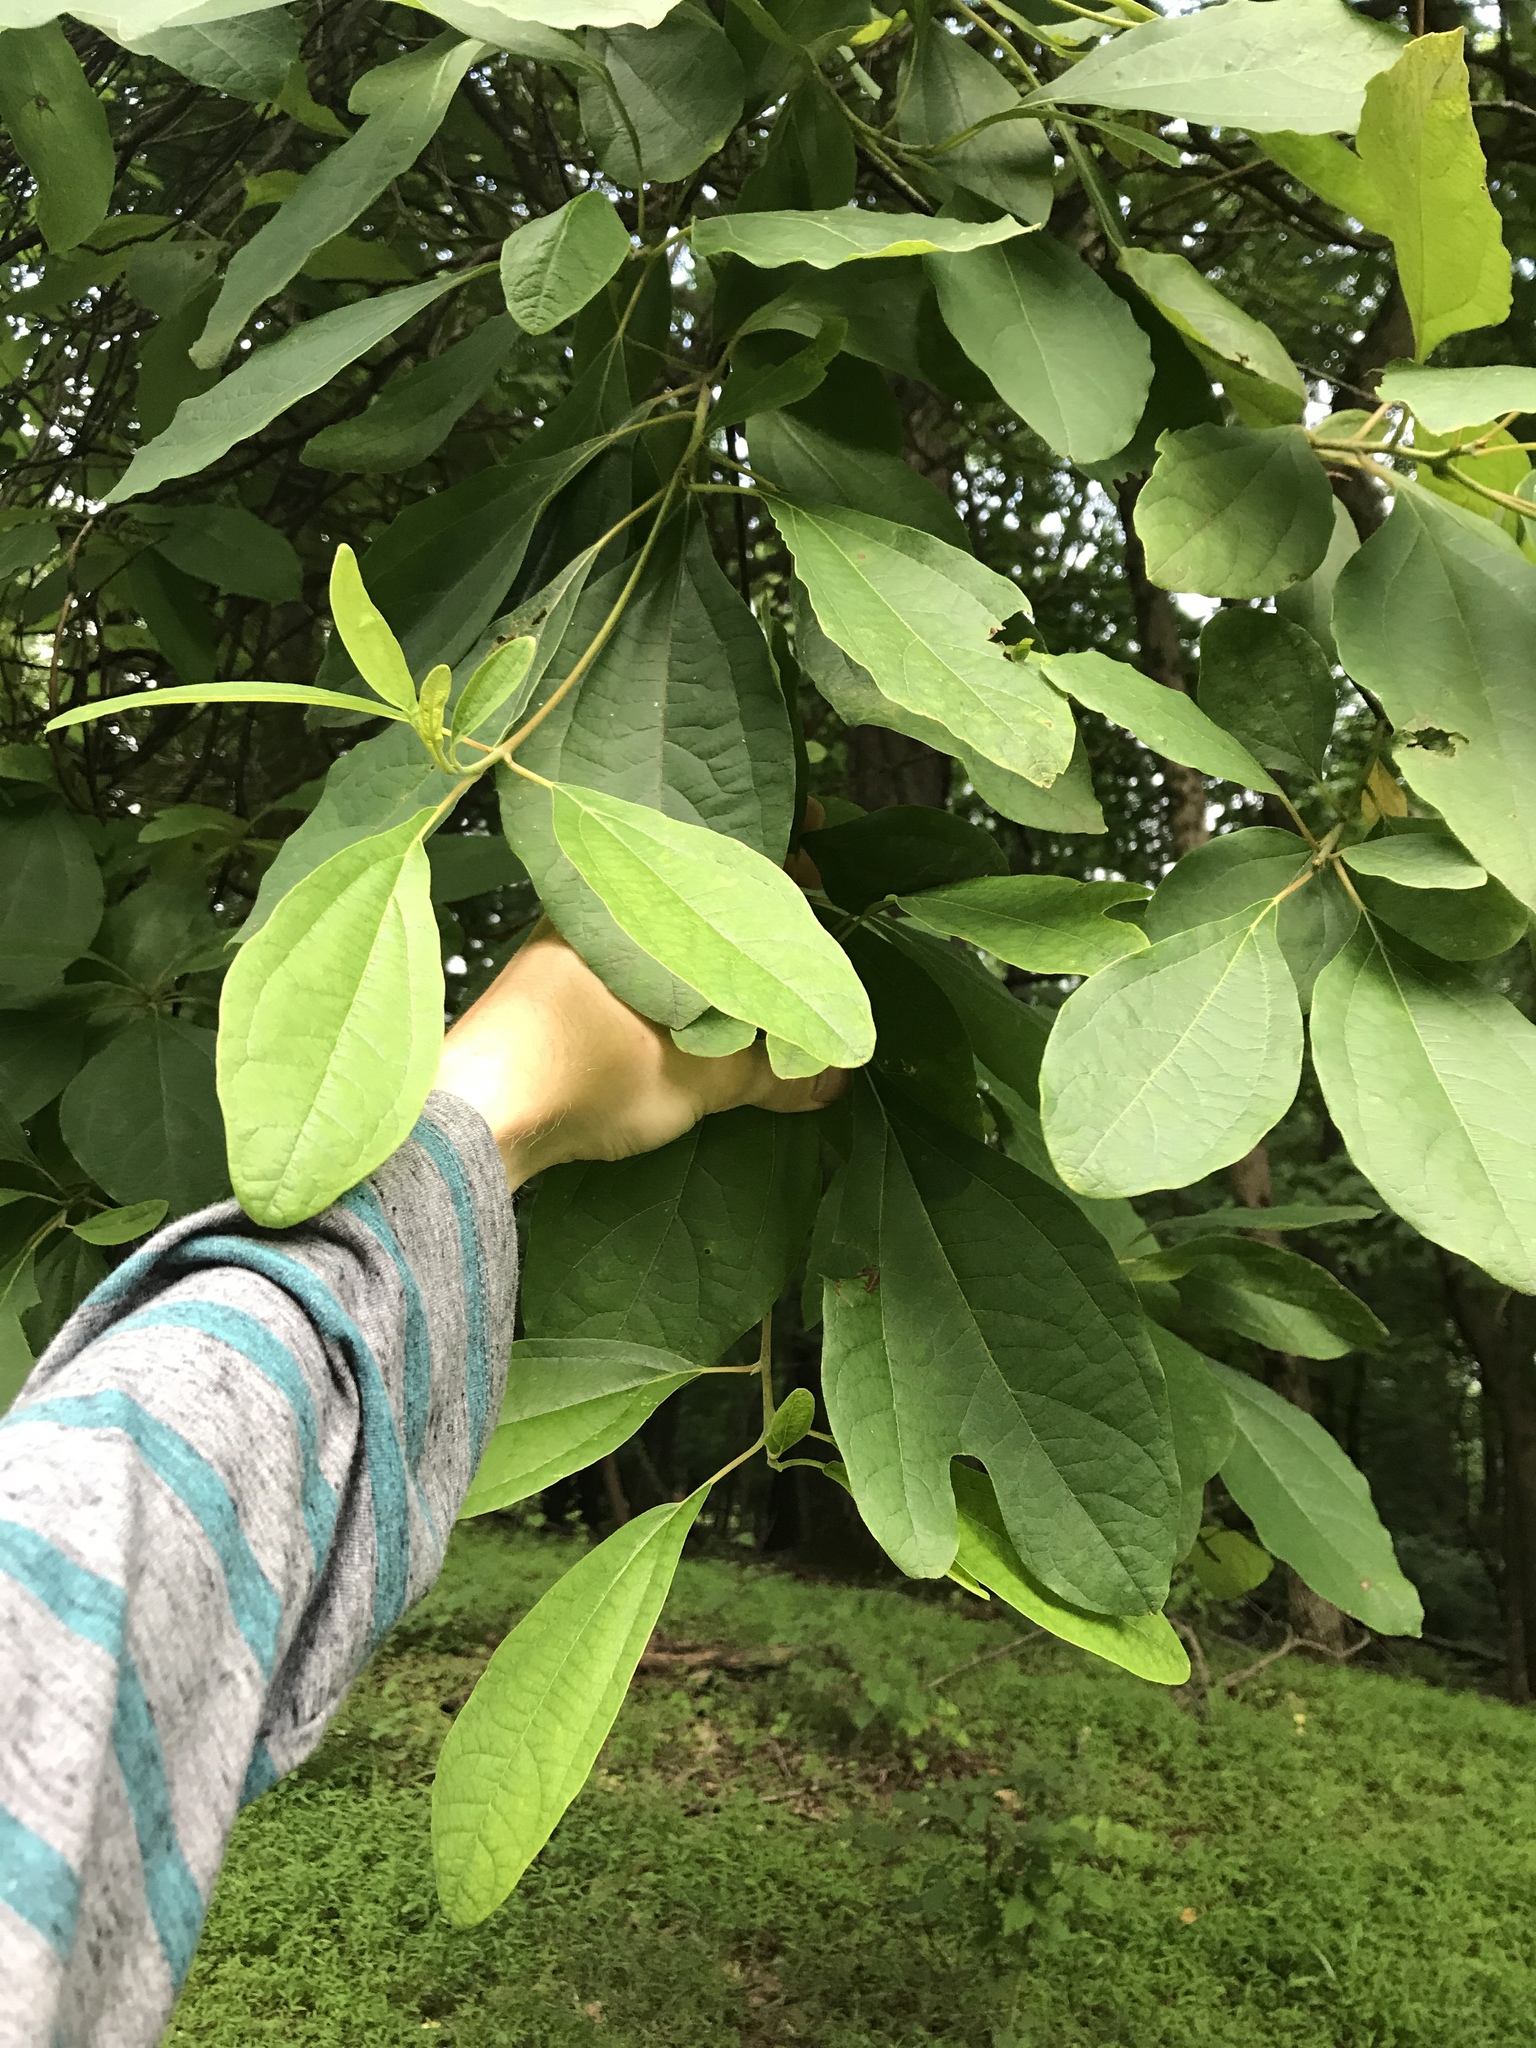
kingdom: Plantae
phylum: Tracheophyta
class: Magnoliopsida
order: Laurales
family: Lauraceae
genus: Sassafras
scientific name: Sassafras albidum
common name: Sassafras
